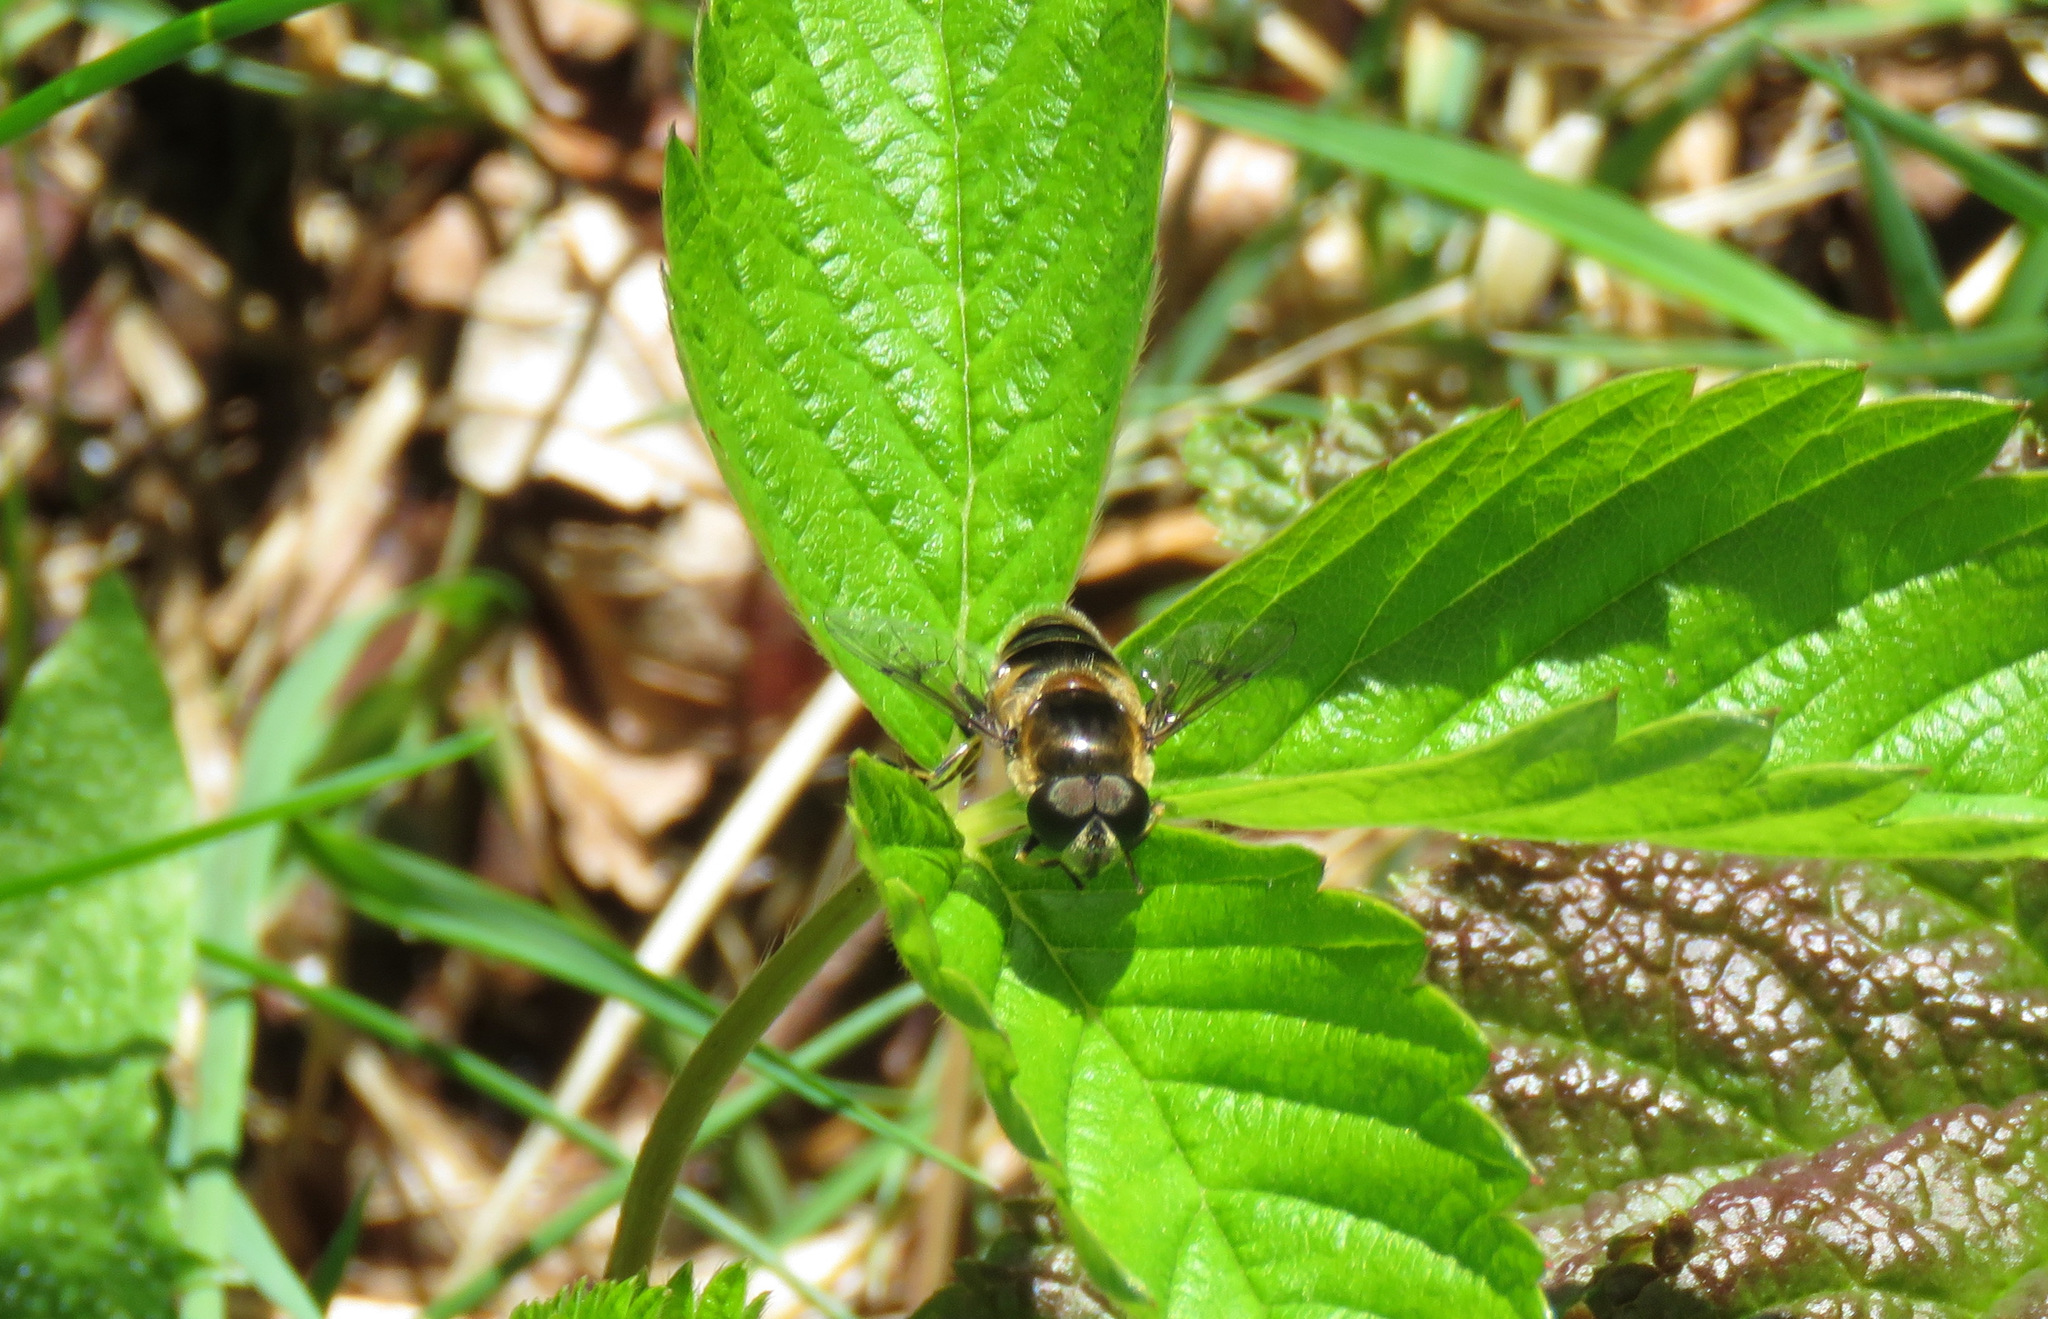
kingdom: Animalia
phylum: Arthropoda
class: Insecta
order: Diptera
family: Syrphidae
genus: Eristalis
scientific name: Eristalis obscura
